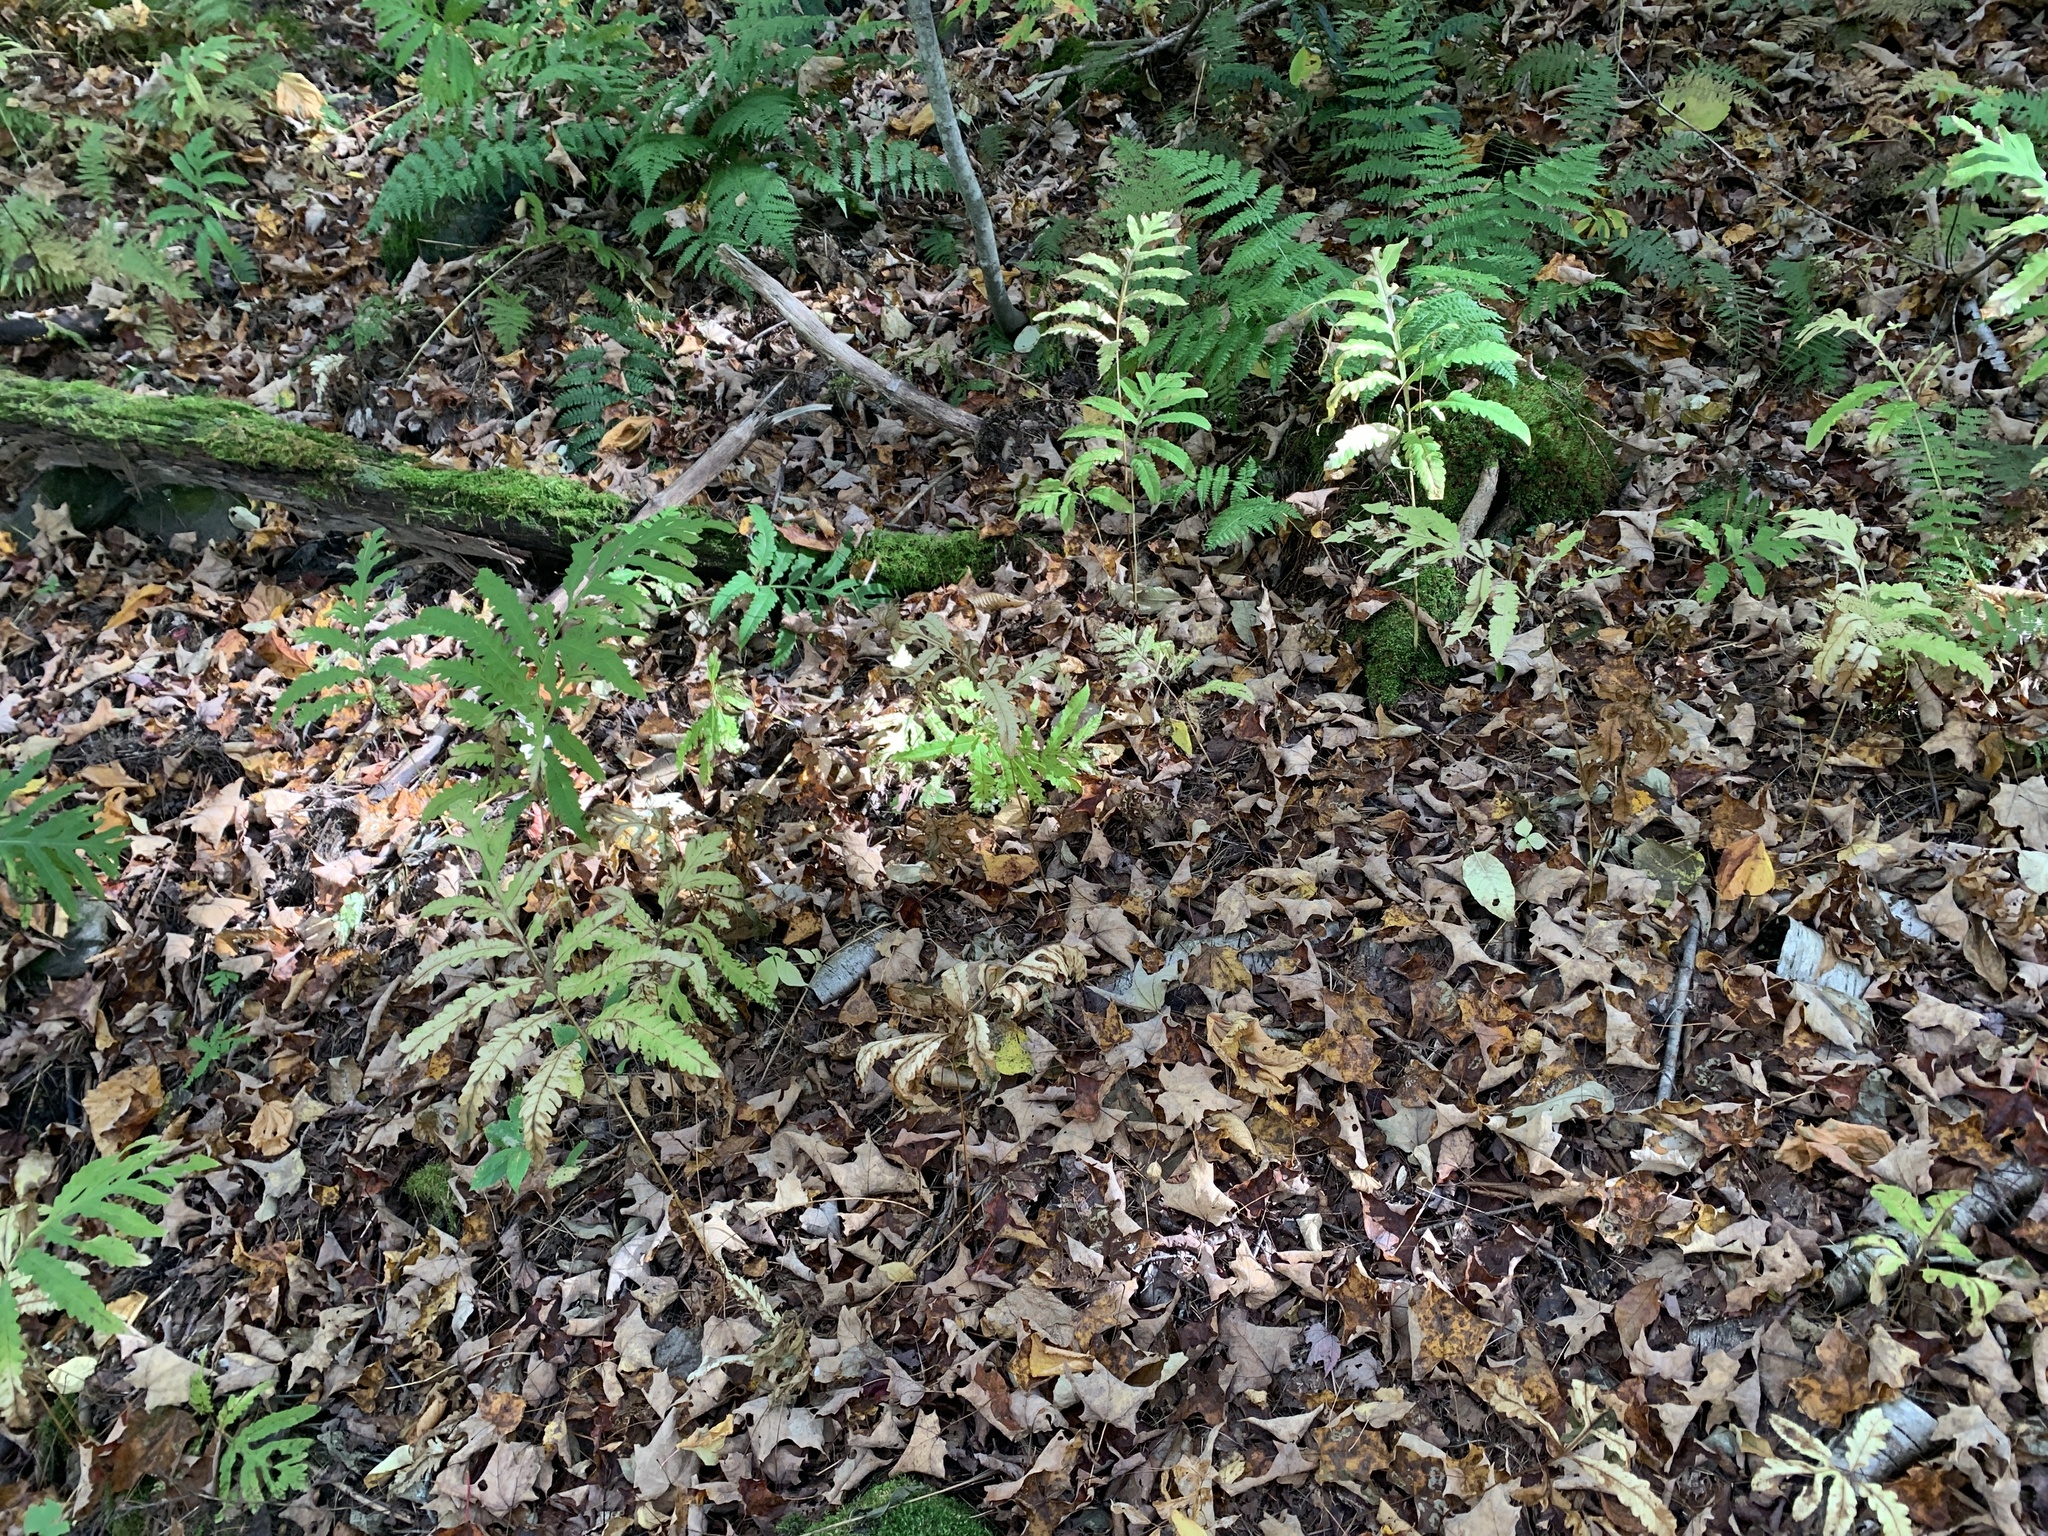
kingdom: Plantae
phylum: Tracheophyta
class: Polypodiopsida
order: Polypodiales
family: Onocleaceae
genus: Onoclea
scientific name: Onoclea sensibilis
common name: Sensitive fern
